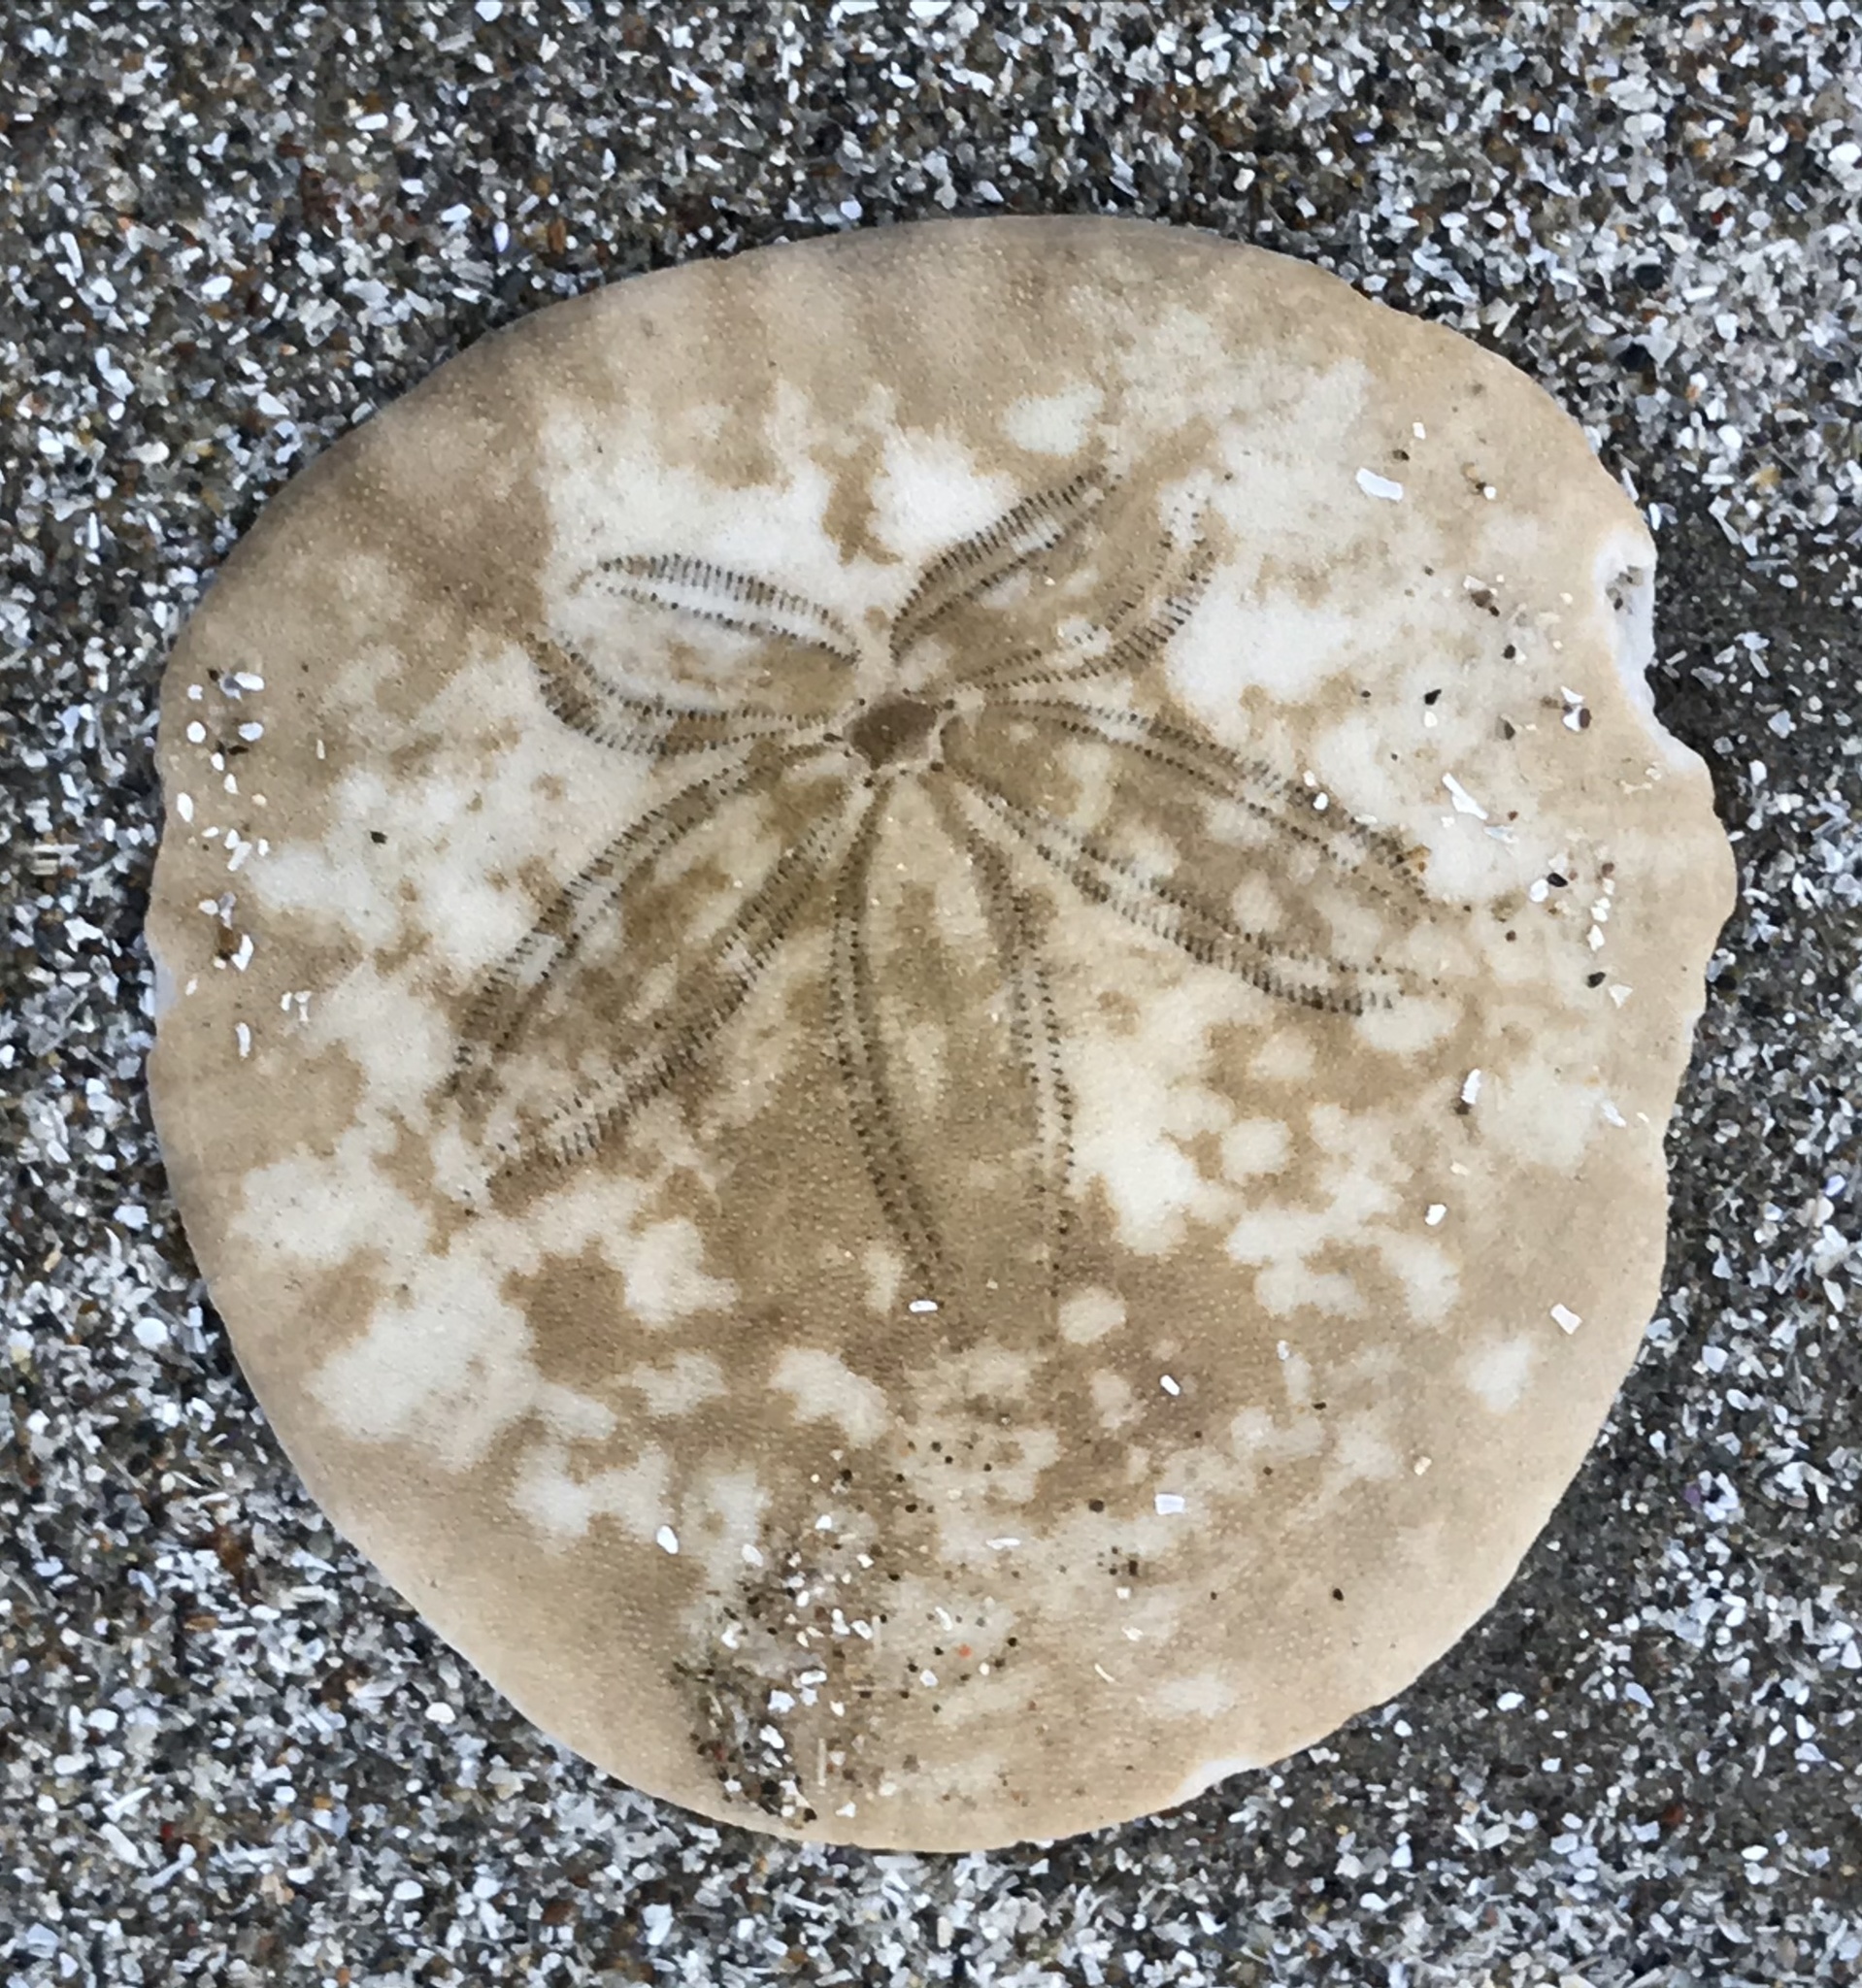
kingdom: Animalia
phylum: Echinodermata
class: Echinoidea
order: Echinolampadacea
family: Dendrasteridae
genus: Dendraster
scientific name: Dendraster excentricus
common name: Eccentric sand dollar sea urchin
